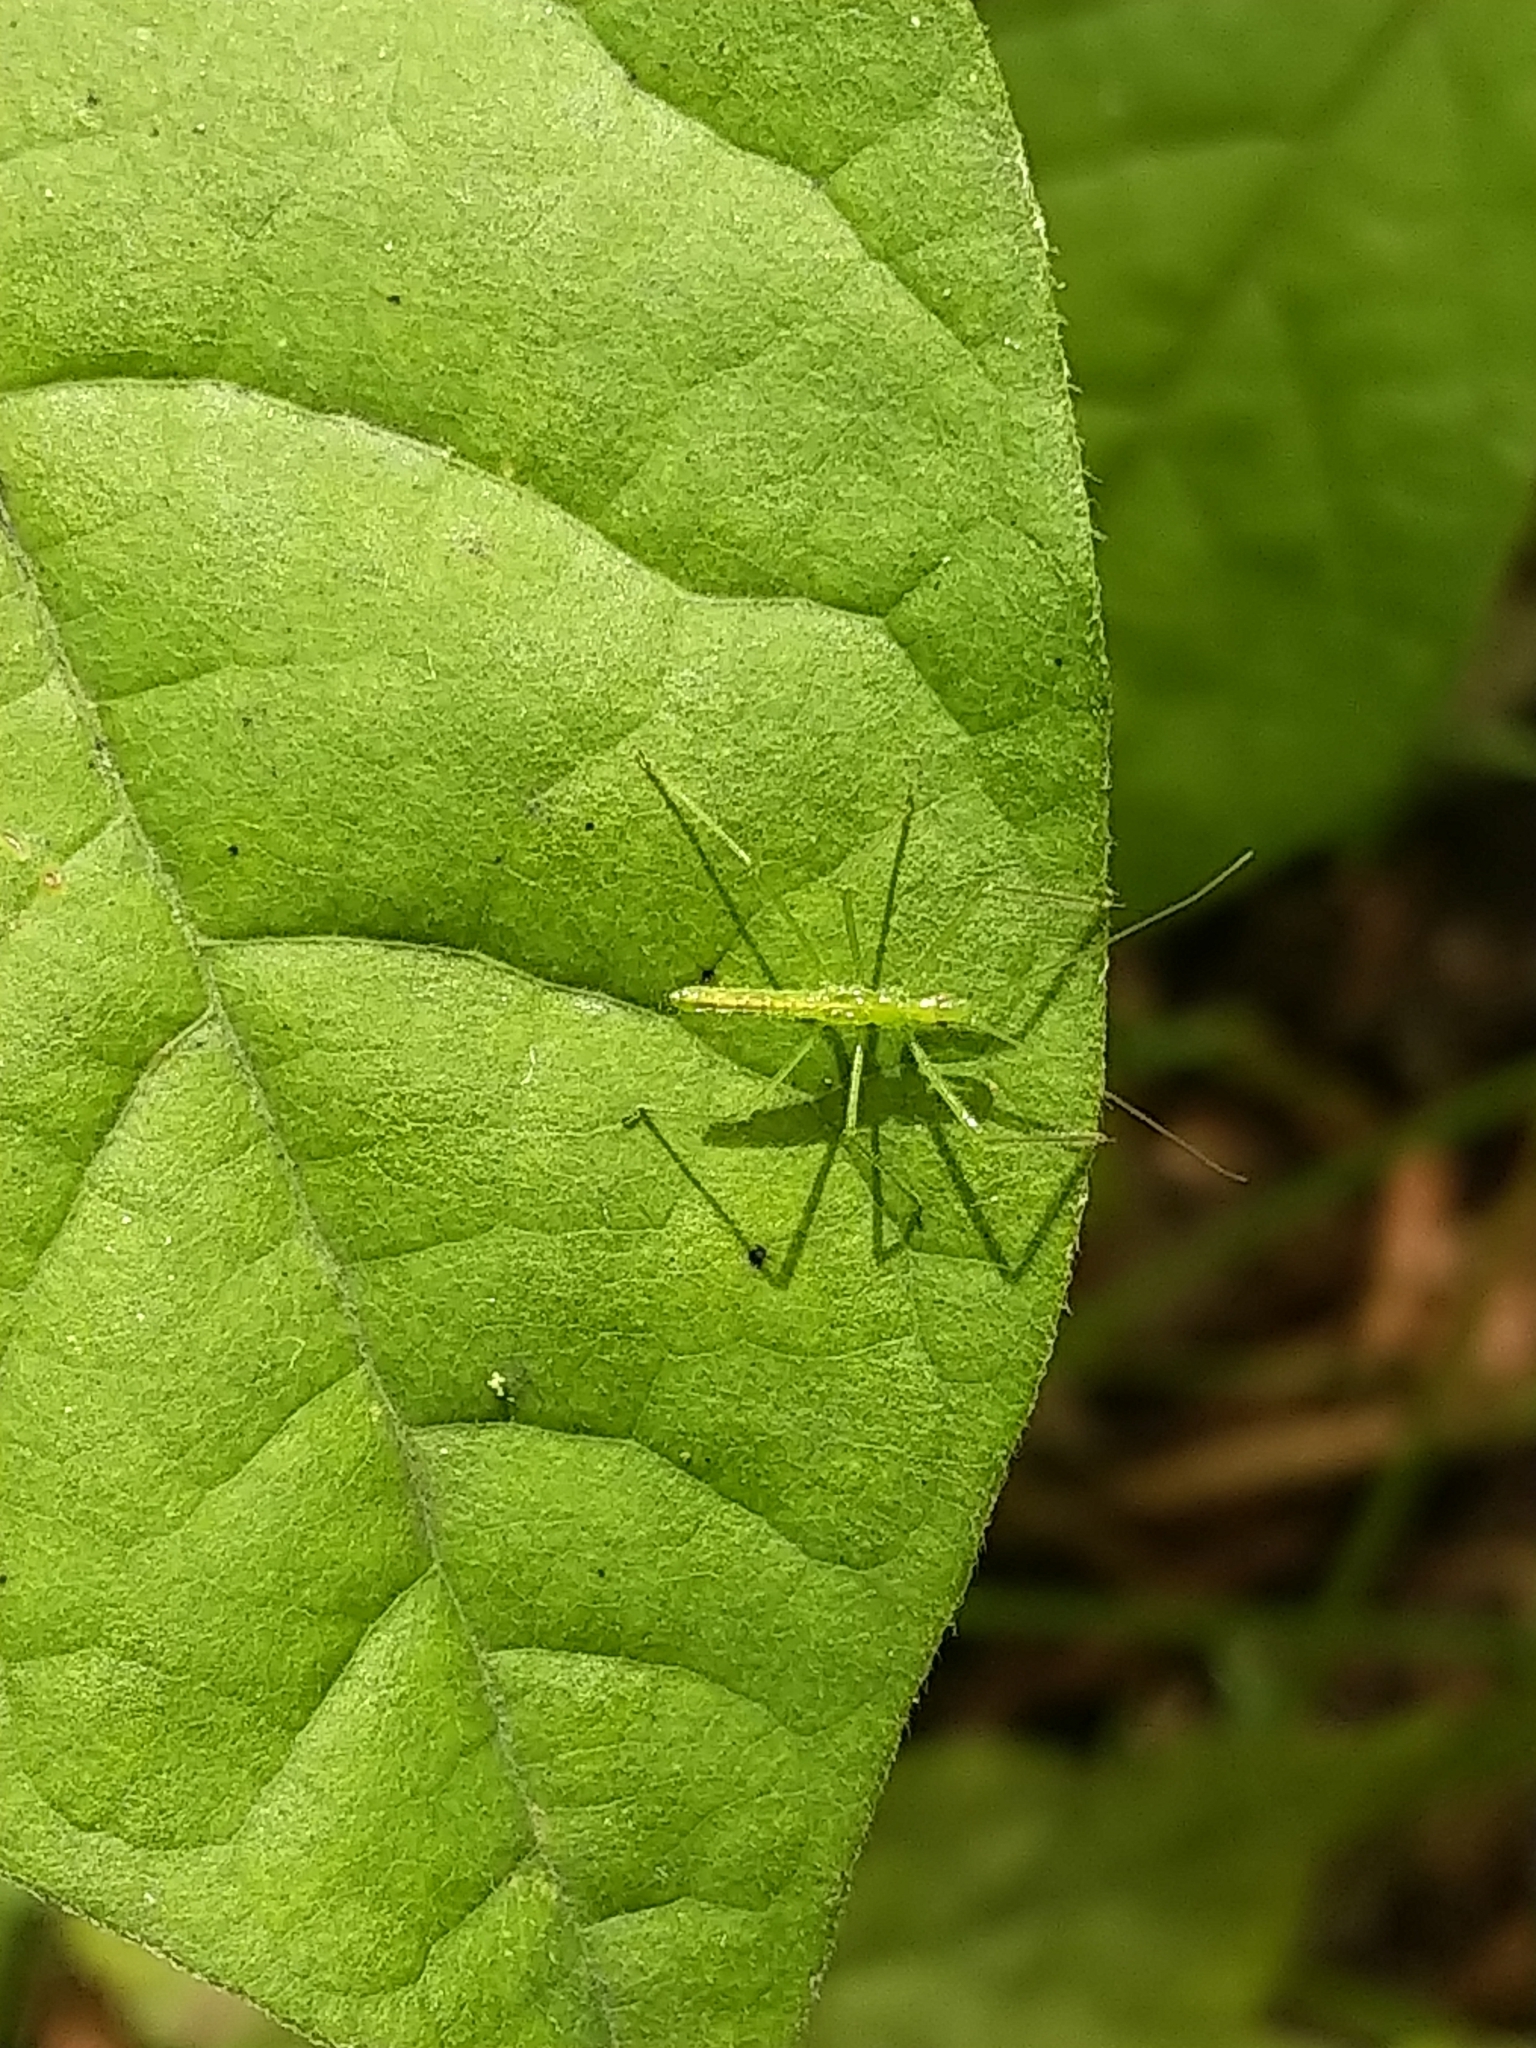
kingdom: Animalia
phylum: Arthropoda
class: Insecta
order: Hemiptera
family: Reduviidae
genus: Zelus
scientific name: Zelus luridus
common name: Pale green assassin bug
